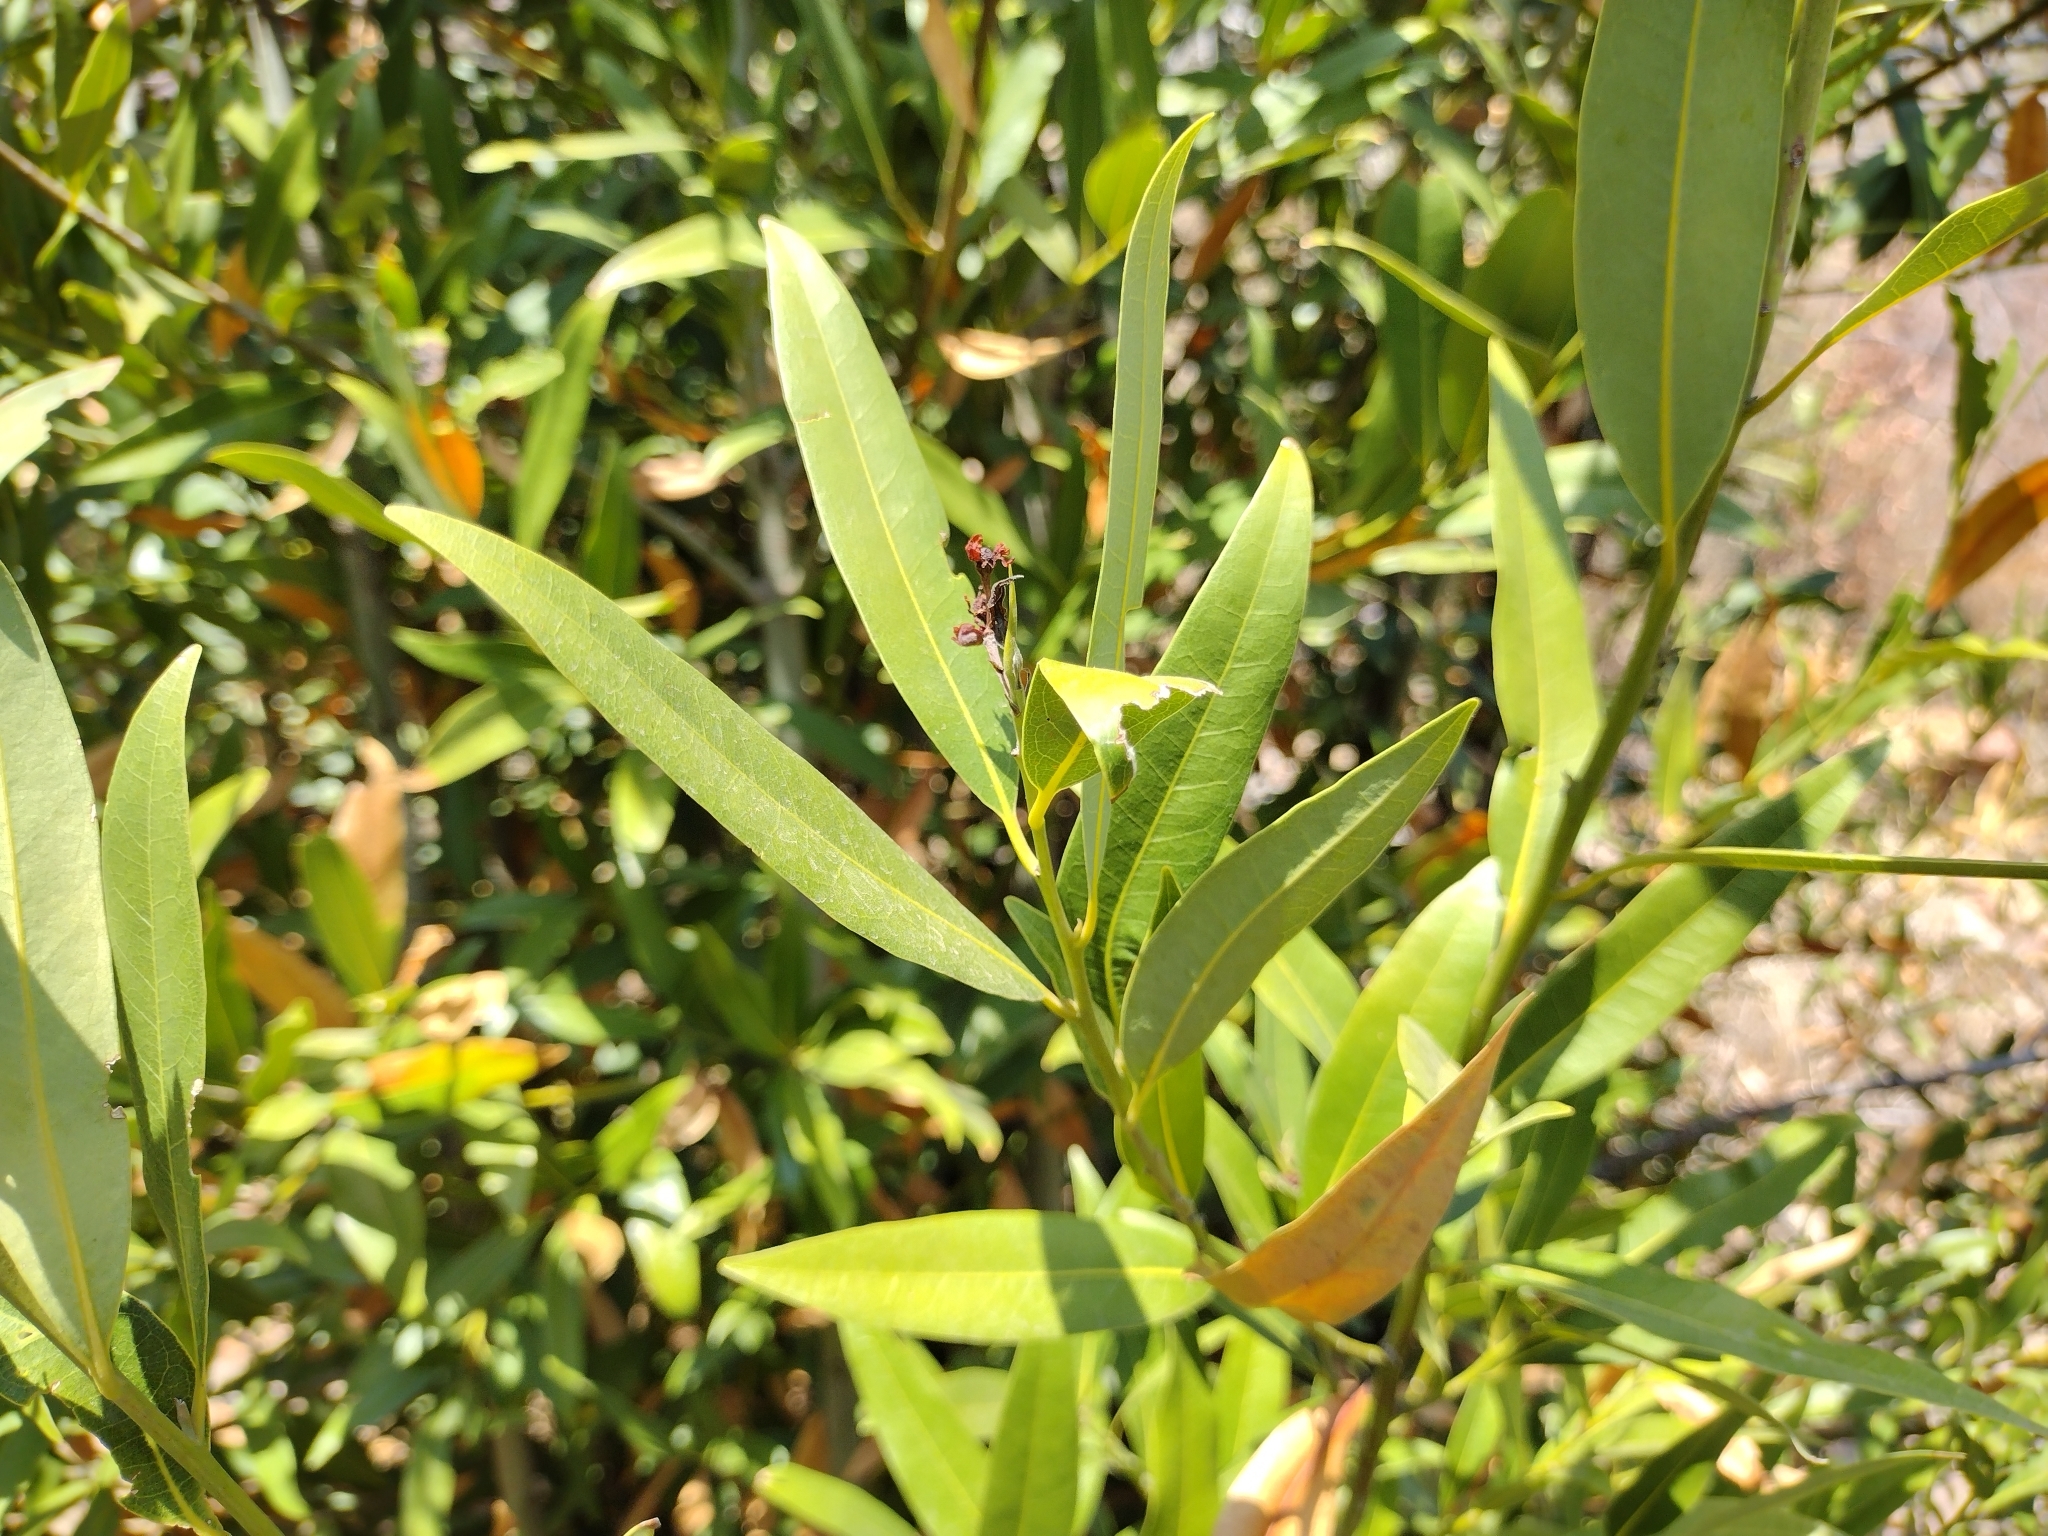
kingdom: Plantae
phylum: Tracheophyta
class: Magnoliopsida
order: Laurales
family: Lauraceae
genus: Umbellularia
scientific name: Umbellularia californica
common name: California bay
